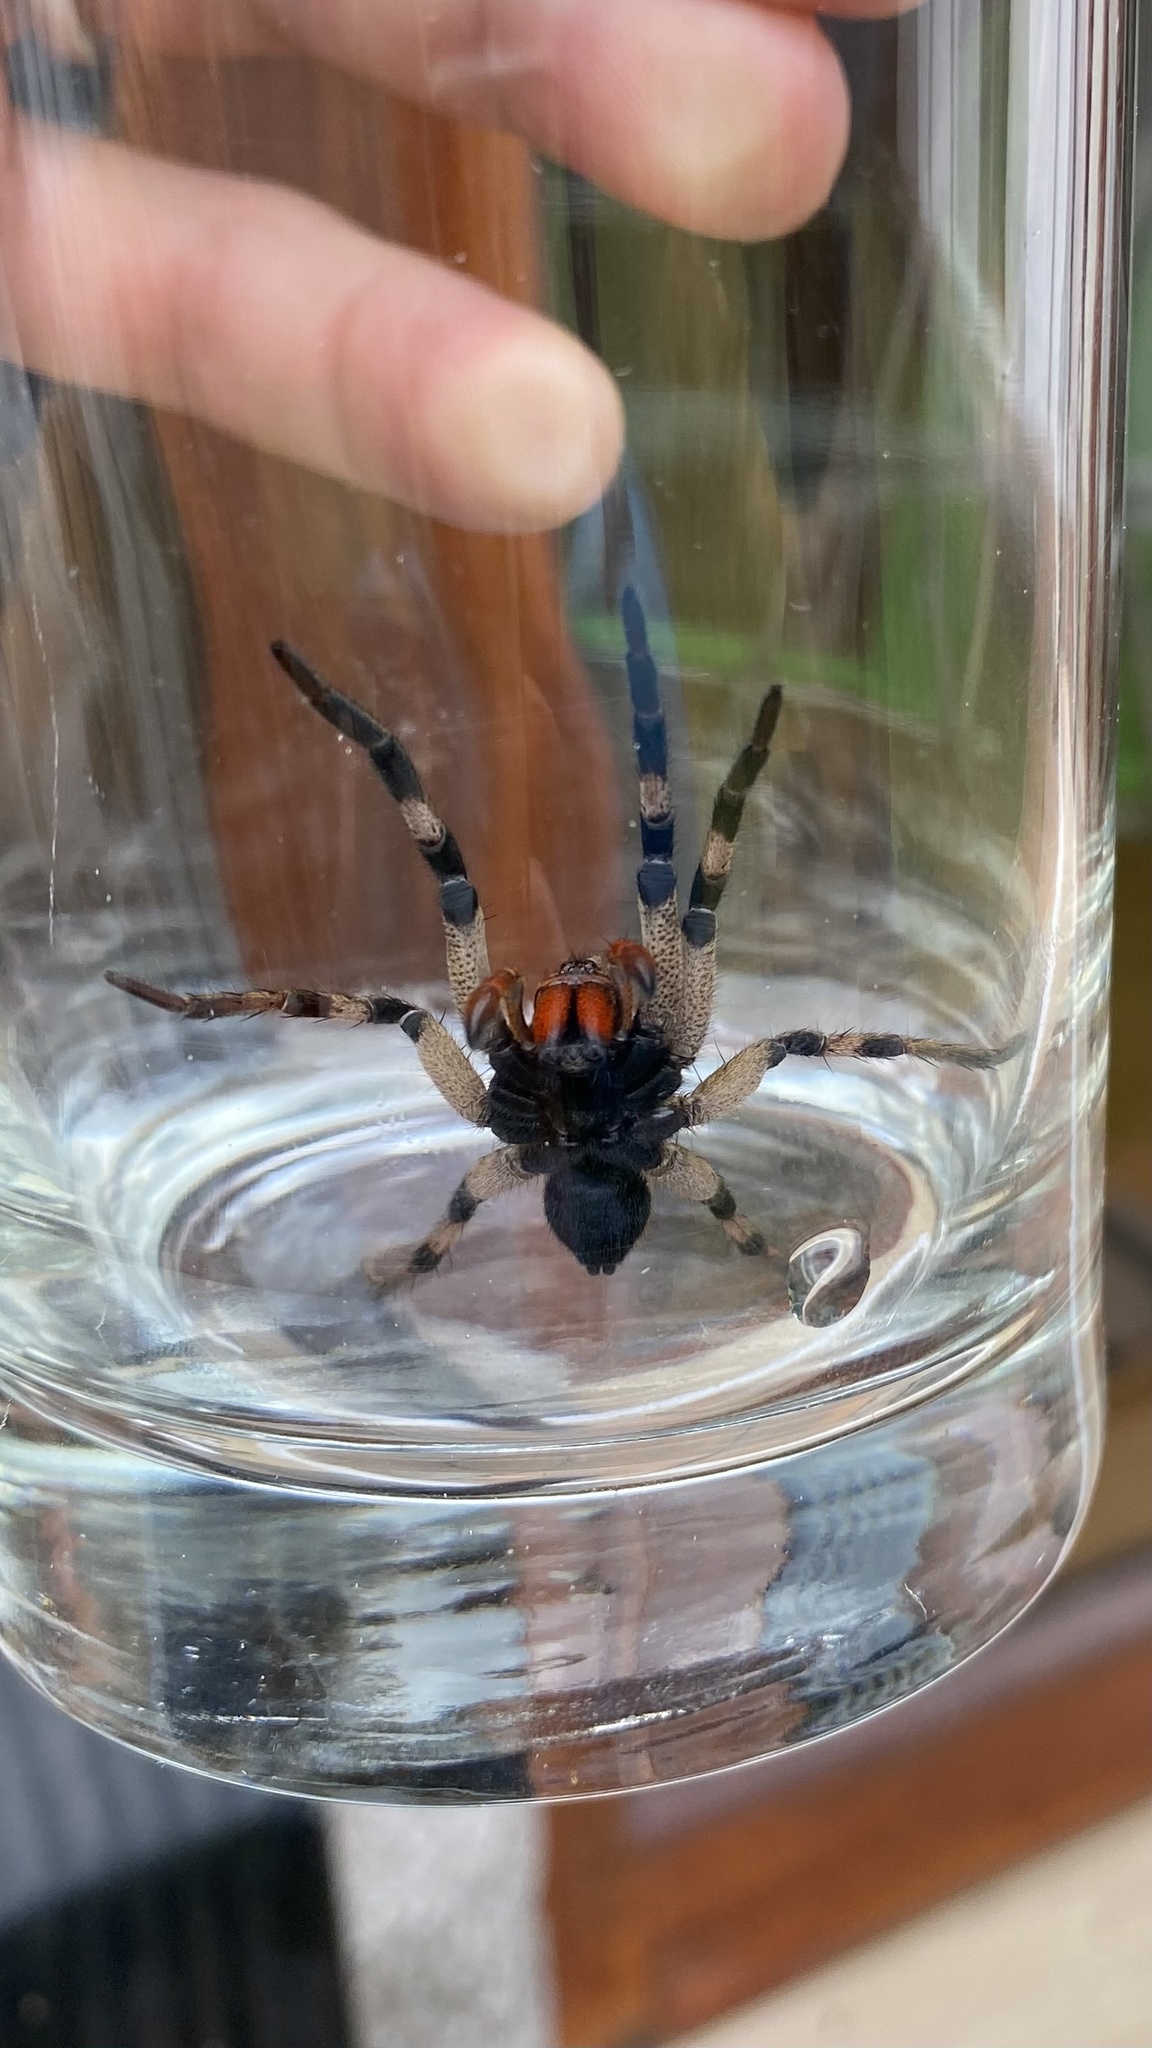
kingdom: Animalia
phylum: Arthropoda
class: Arachnida
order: Araneae
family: Lycosidae
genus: Lycosa
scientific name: Lycosa erythrognatha
